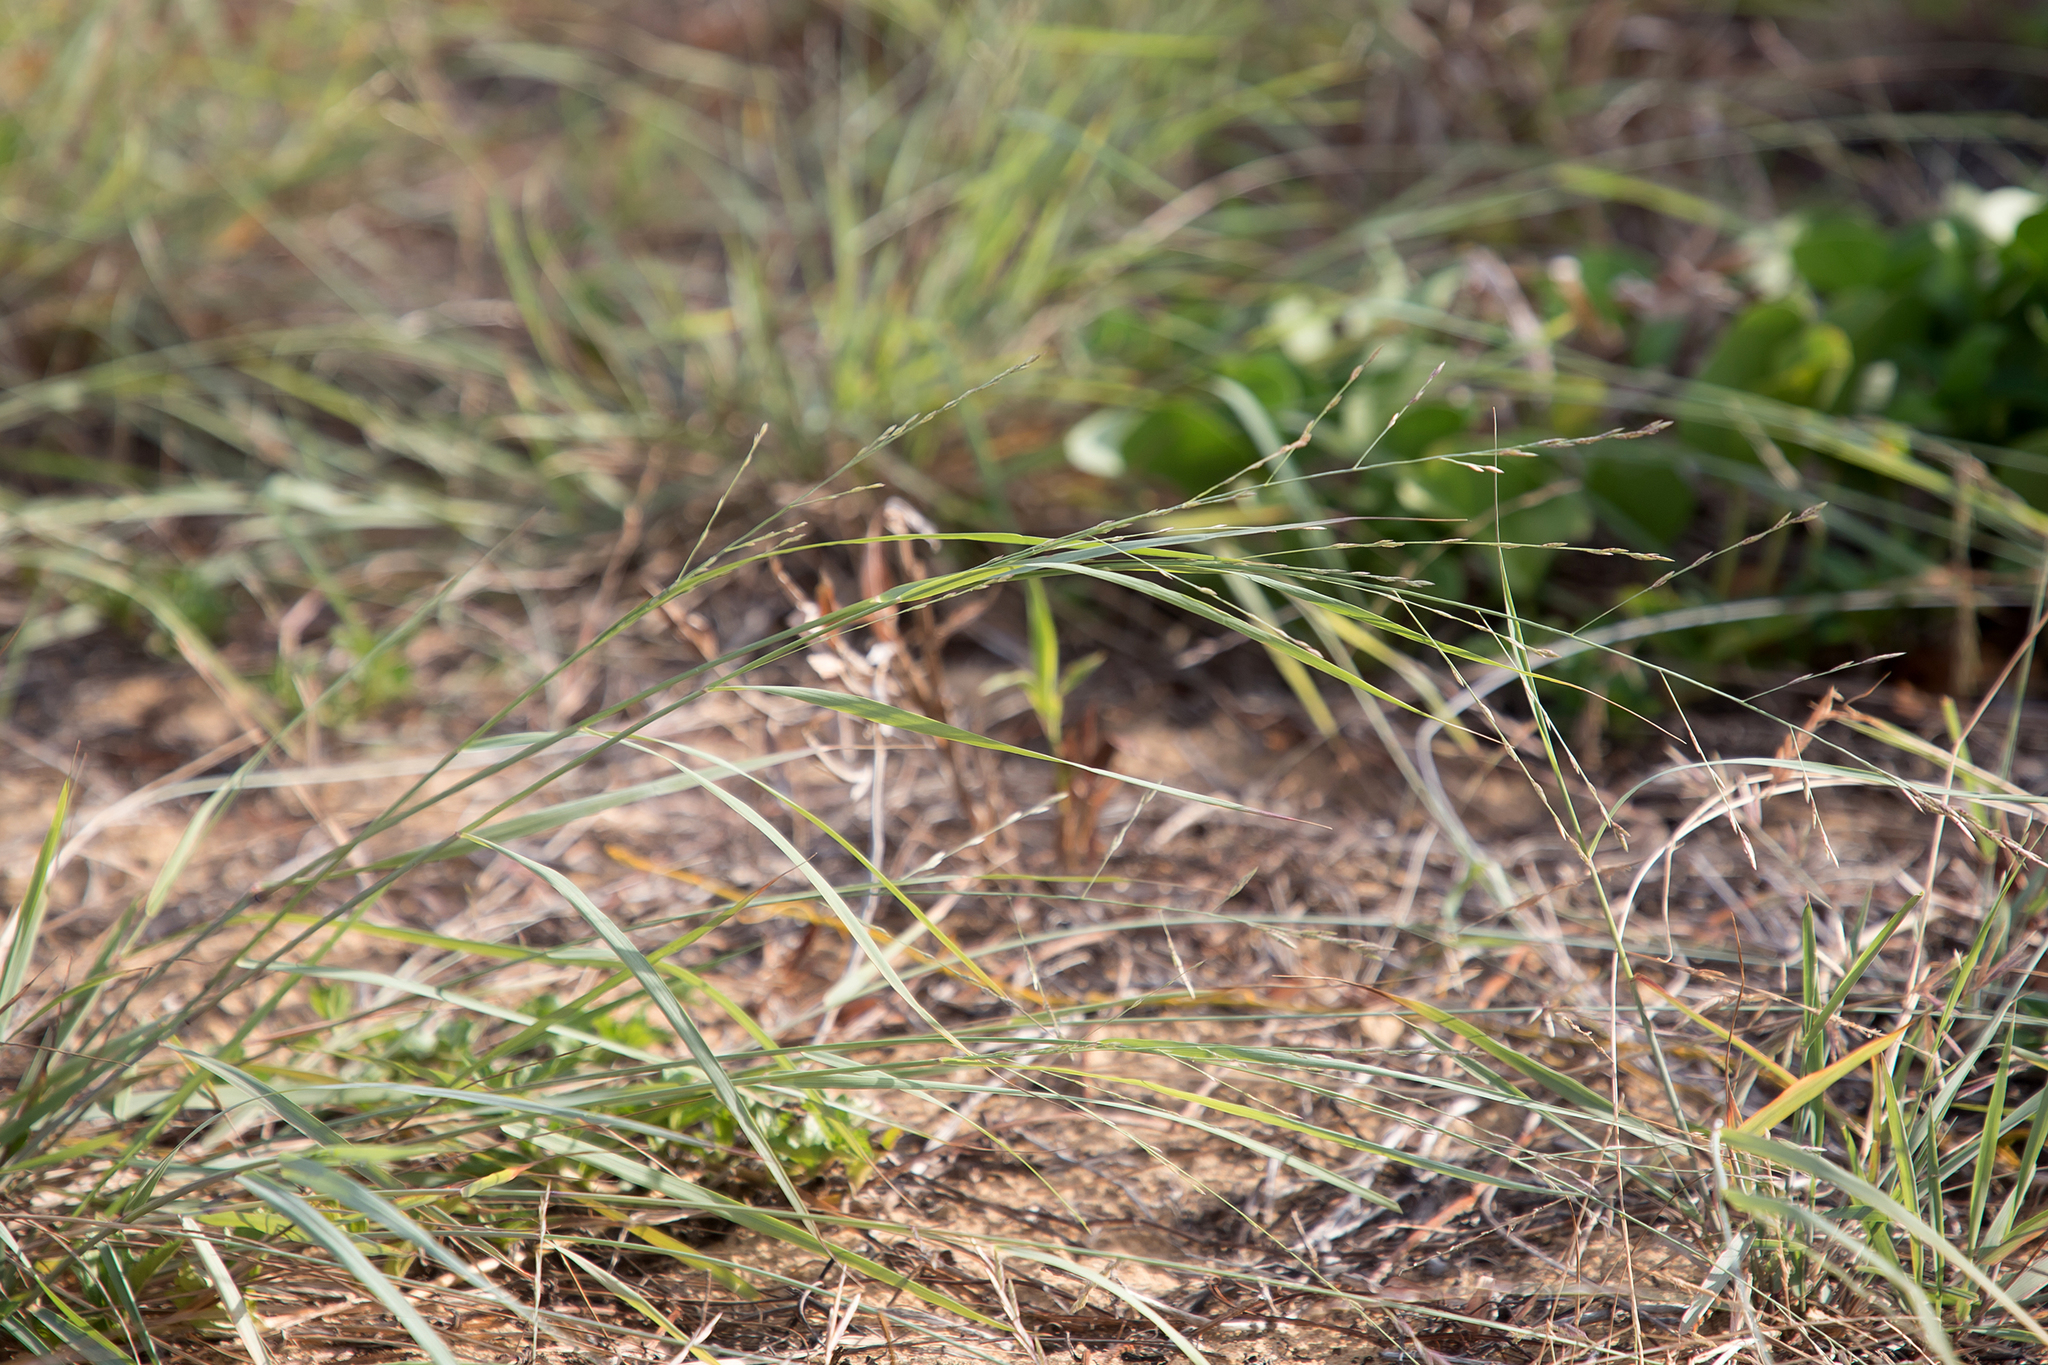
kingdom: Plantae
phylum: Tracheophyta
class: Liliopsida
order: Poales
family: Poaceae
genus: Eragrostis
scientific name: Eragrostis interrupta
